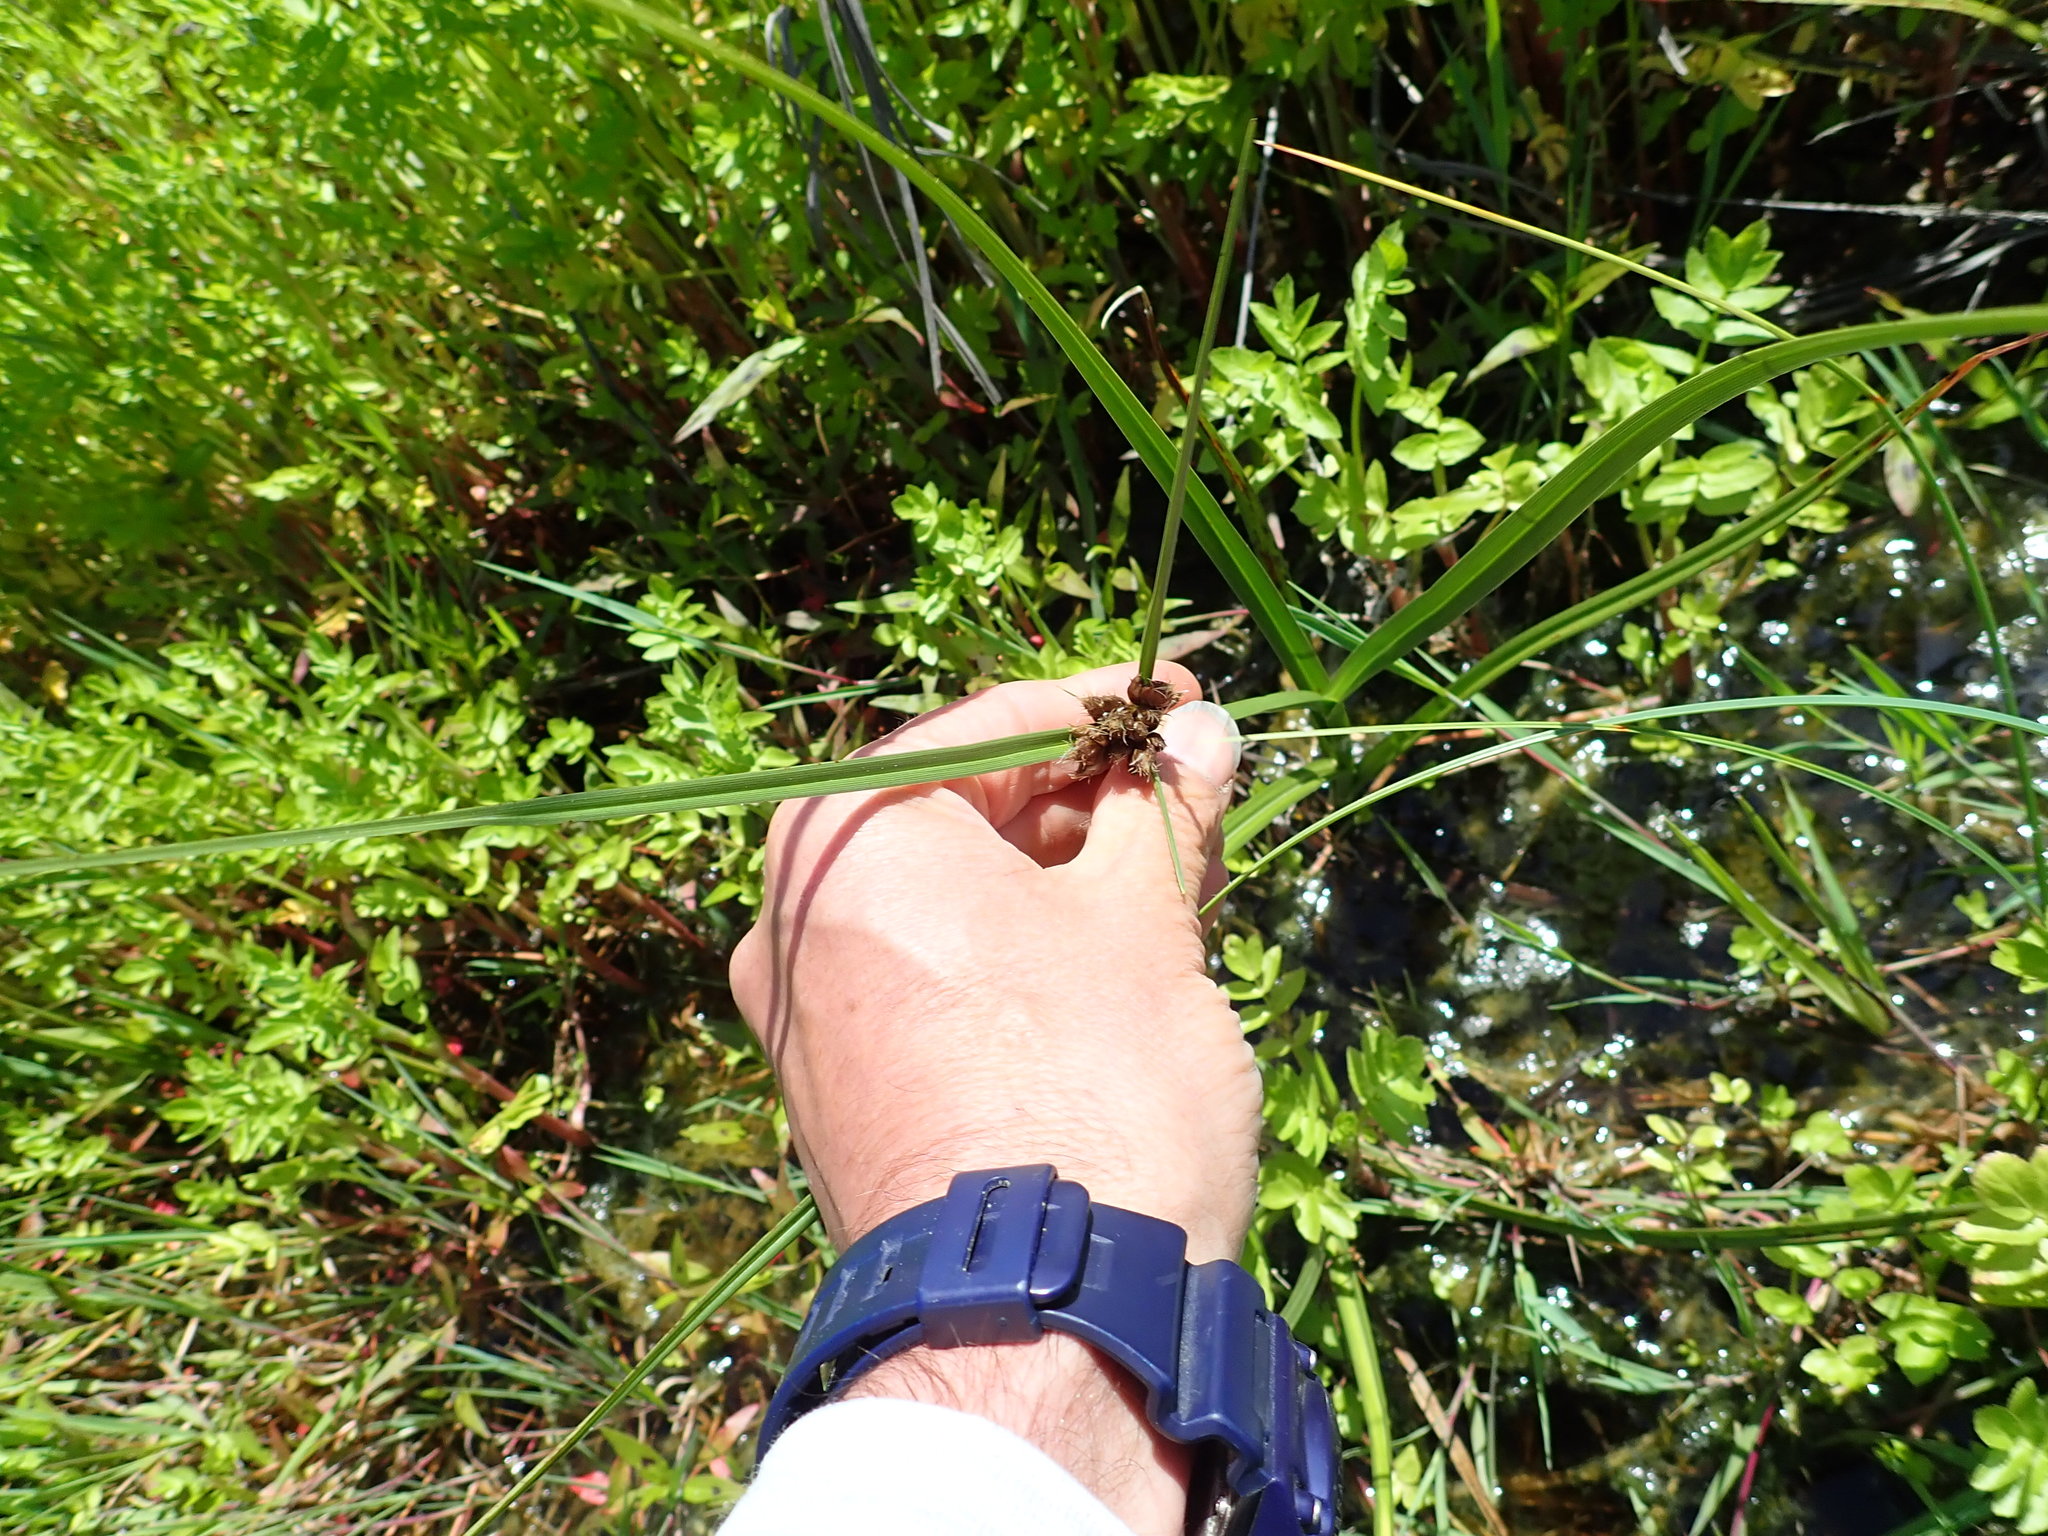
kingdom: Plantae
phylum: Tracheophyta
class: Liliopsida
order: Poales
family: Cyperaceae
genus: Bolboschoenus
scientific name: Bolboschoenus caldwellii
